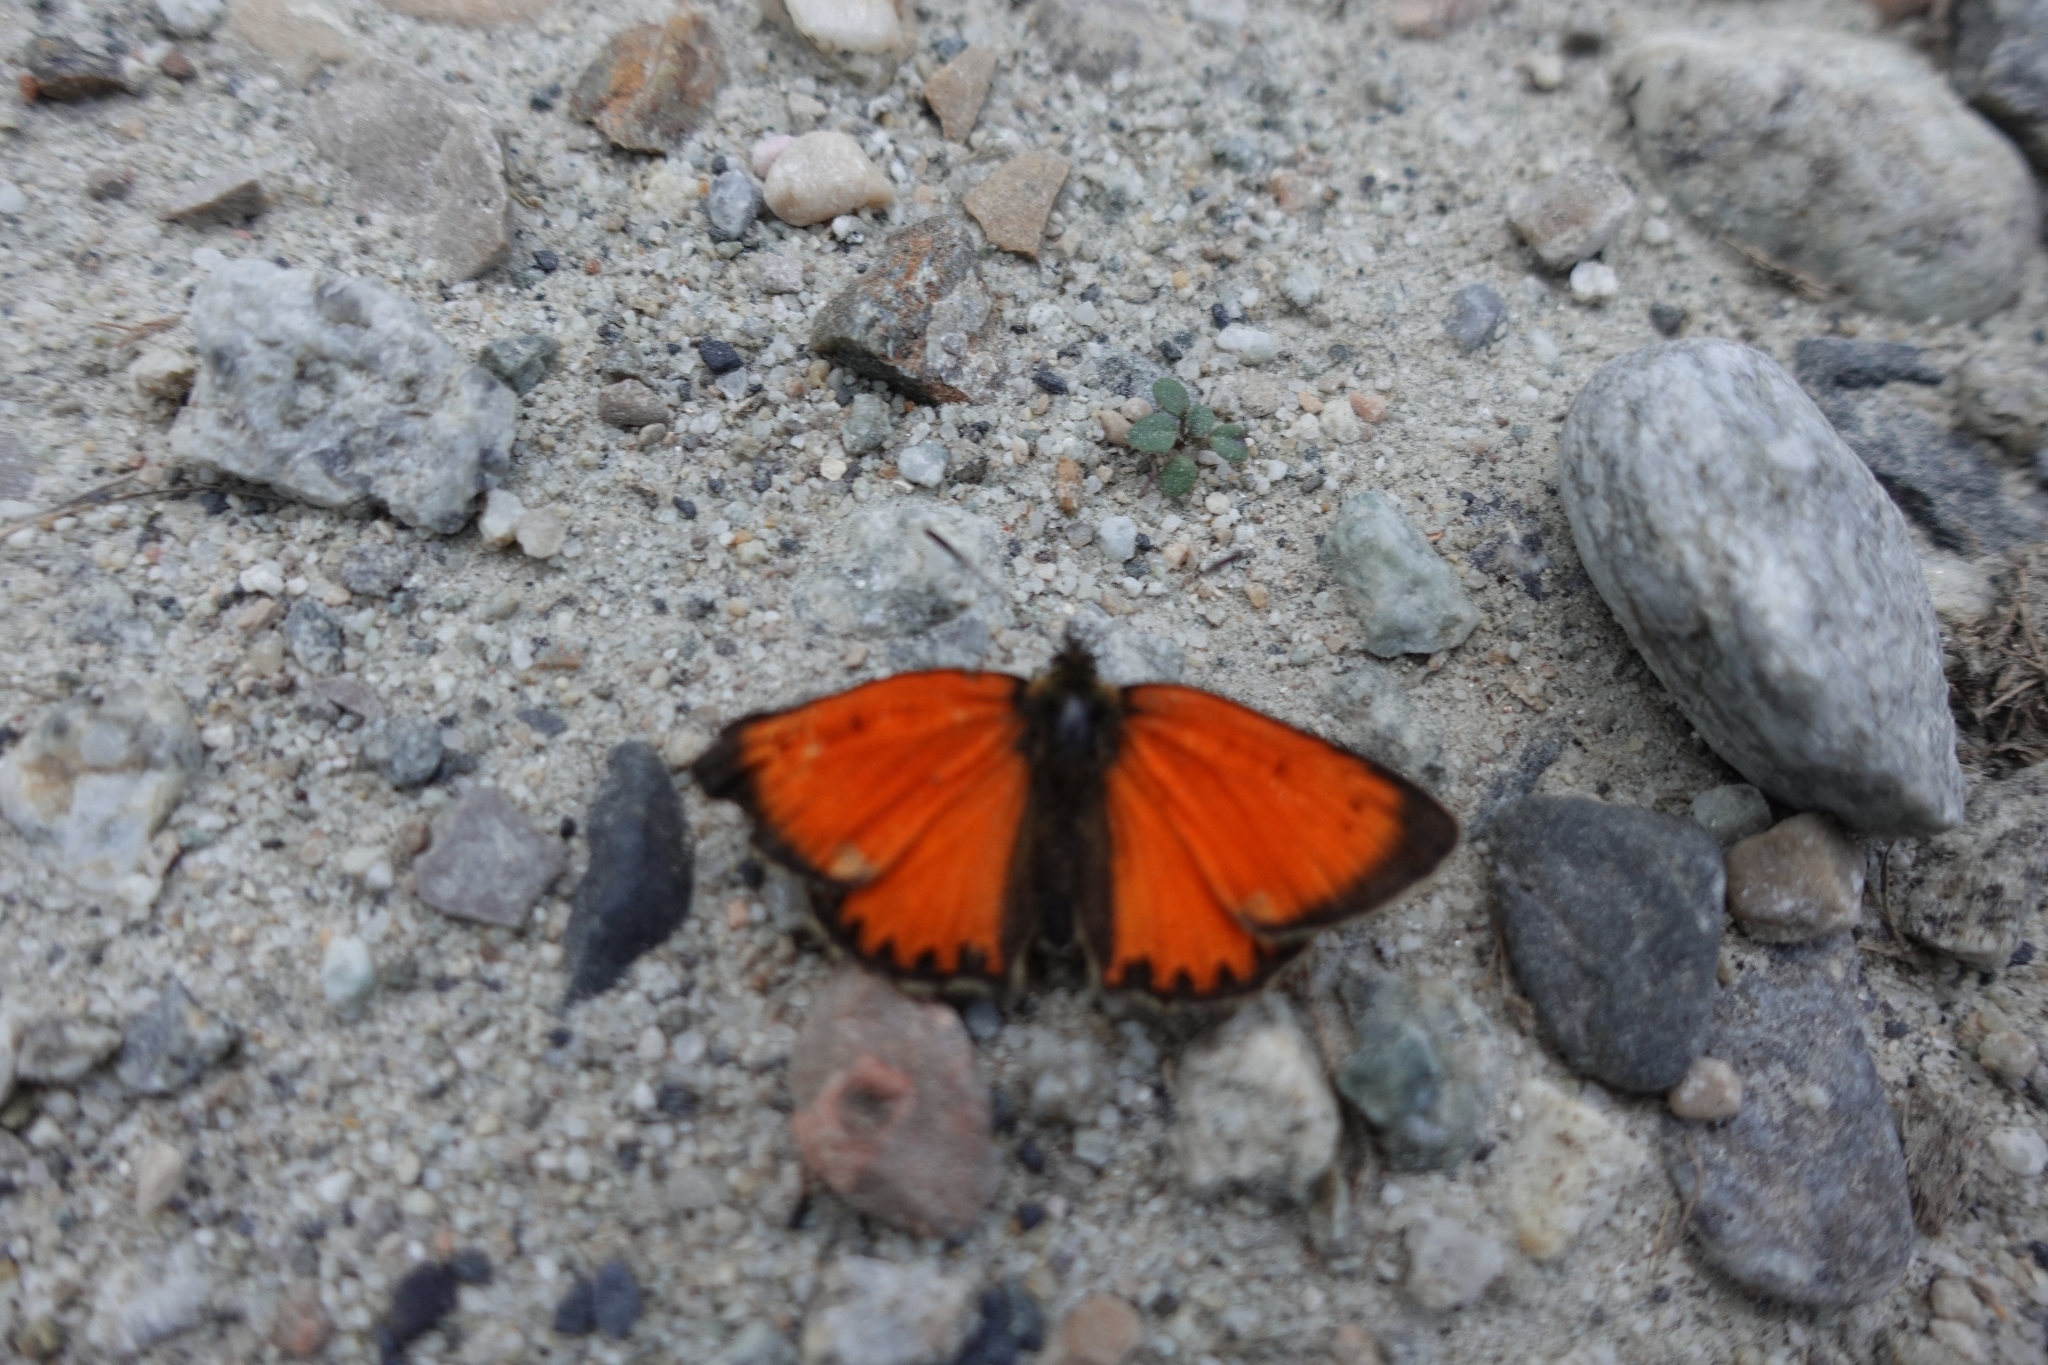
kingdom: Animalia
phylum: Arthropoda
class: Insecta
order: Lepidoptera
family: Lycaenidae
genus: Lycaena
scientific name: Lycaena virgaureae
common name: Scarce copper
